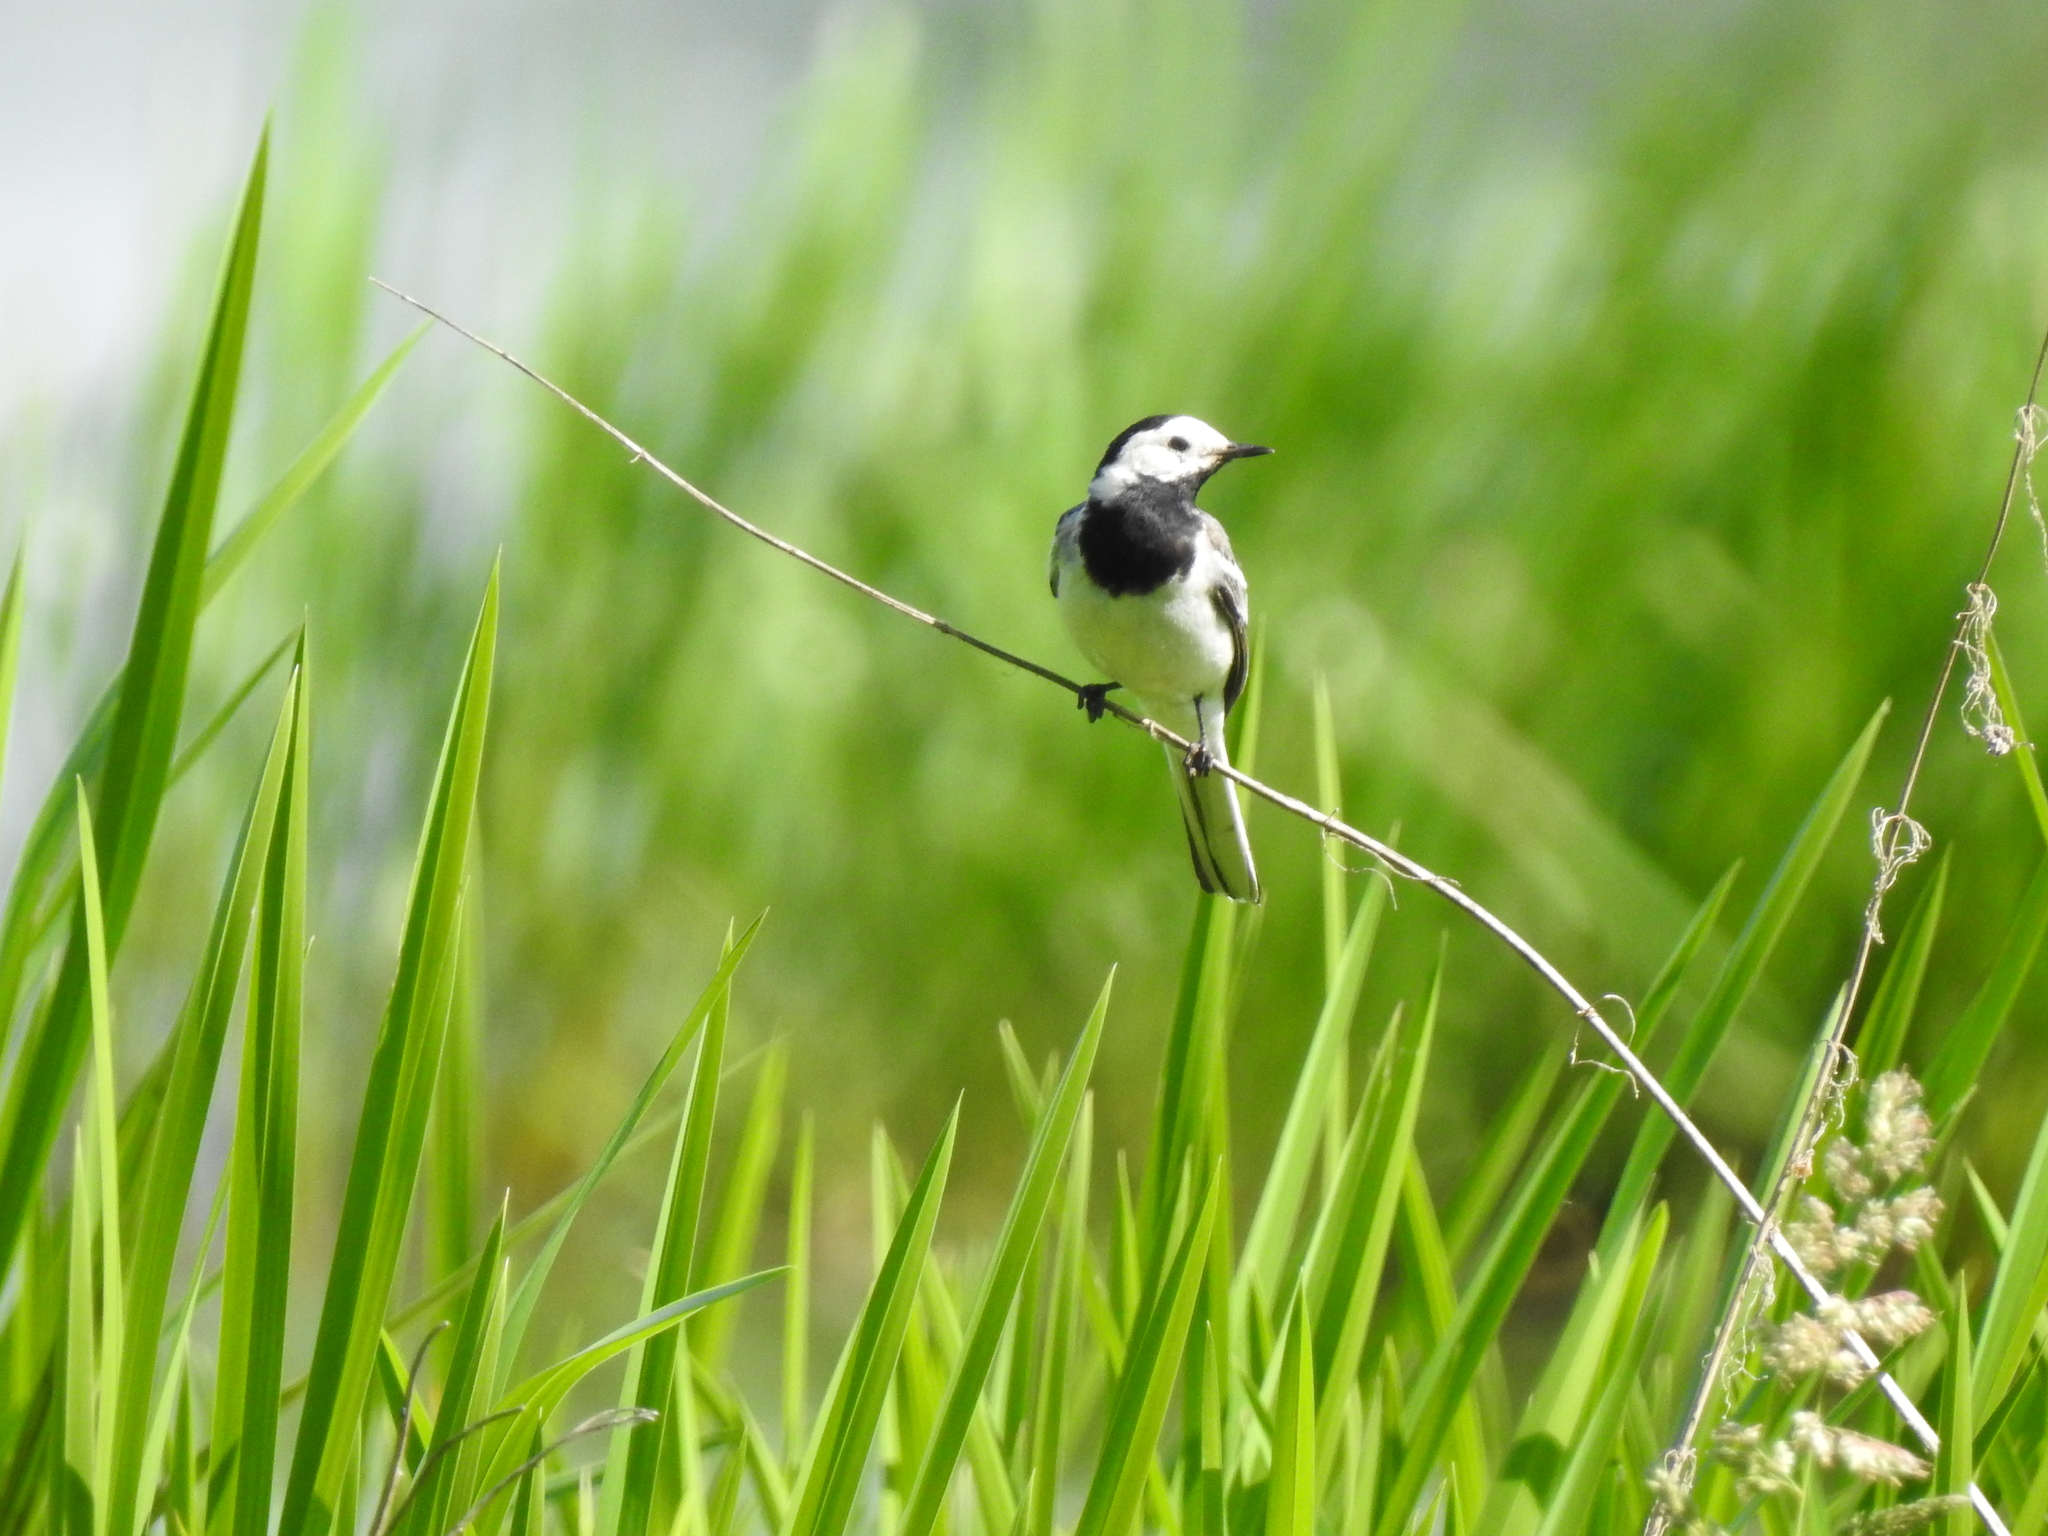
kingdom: Animalia
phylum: Chordata
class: Aves
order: Passeriformes
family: Motacillidae
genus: Motacilla
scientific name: Motacilla alba
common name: White wagtail
